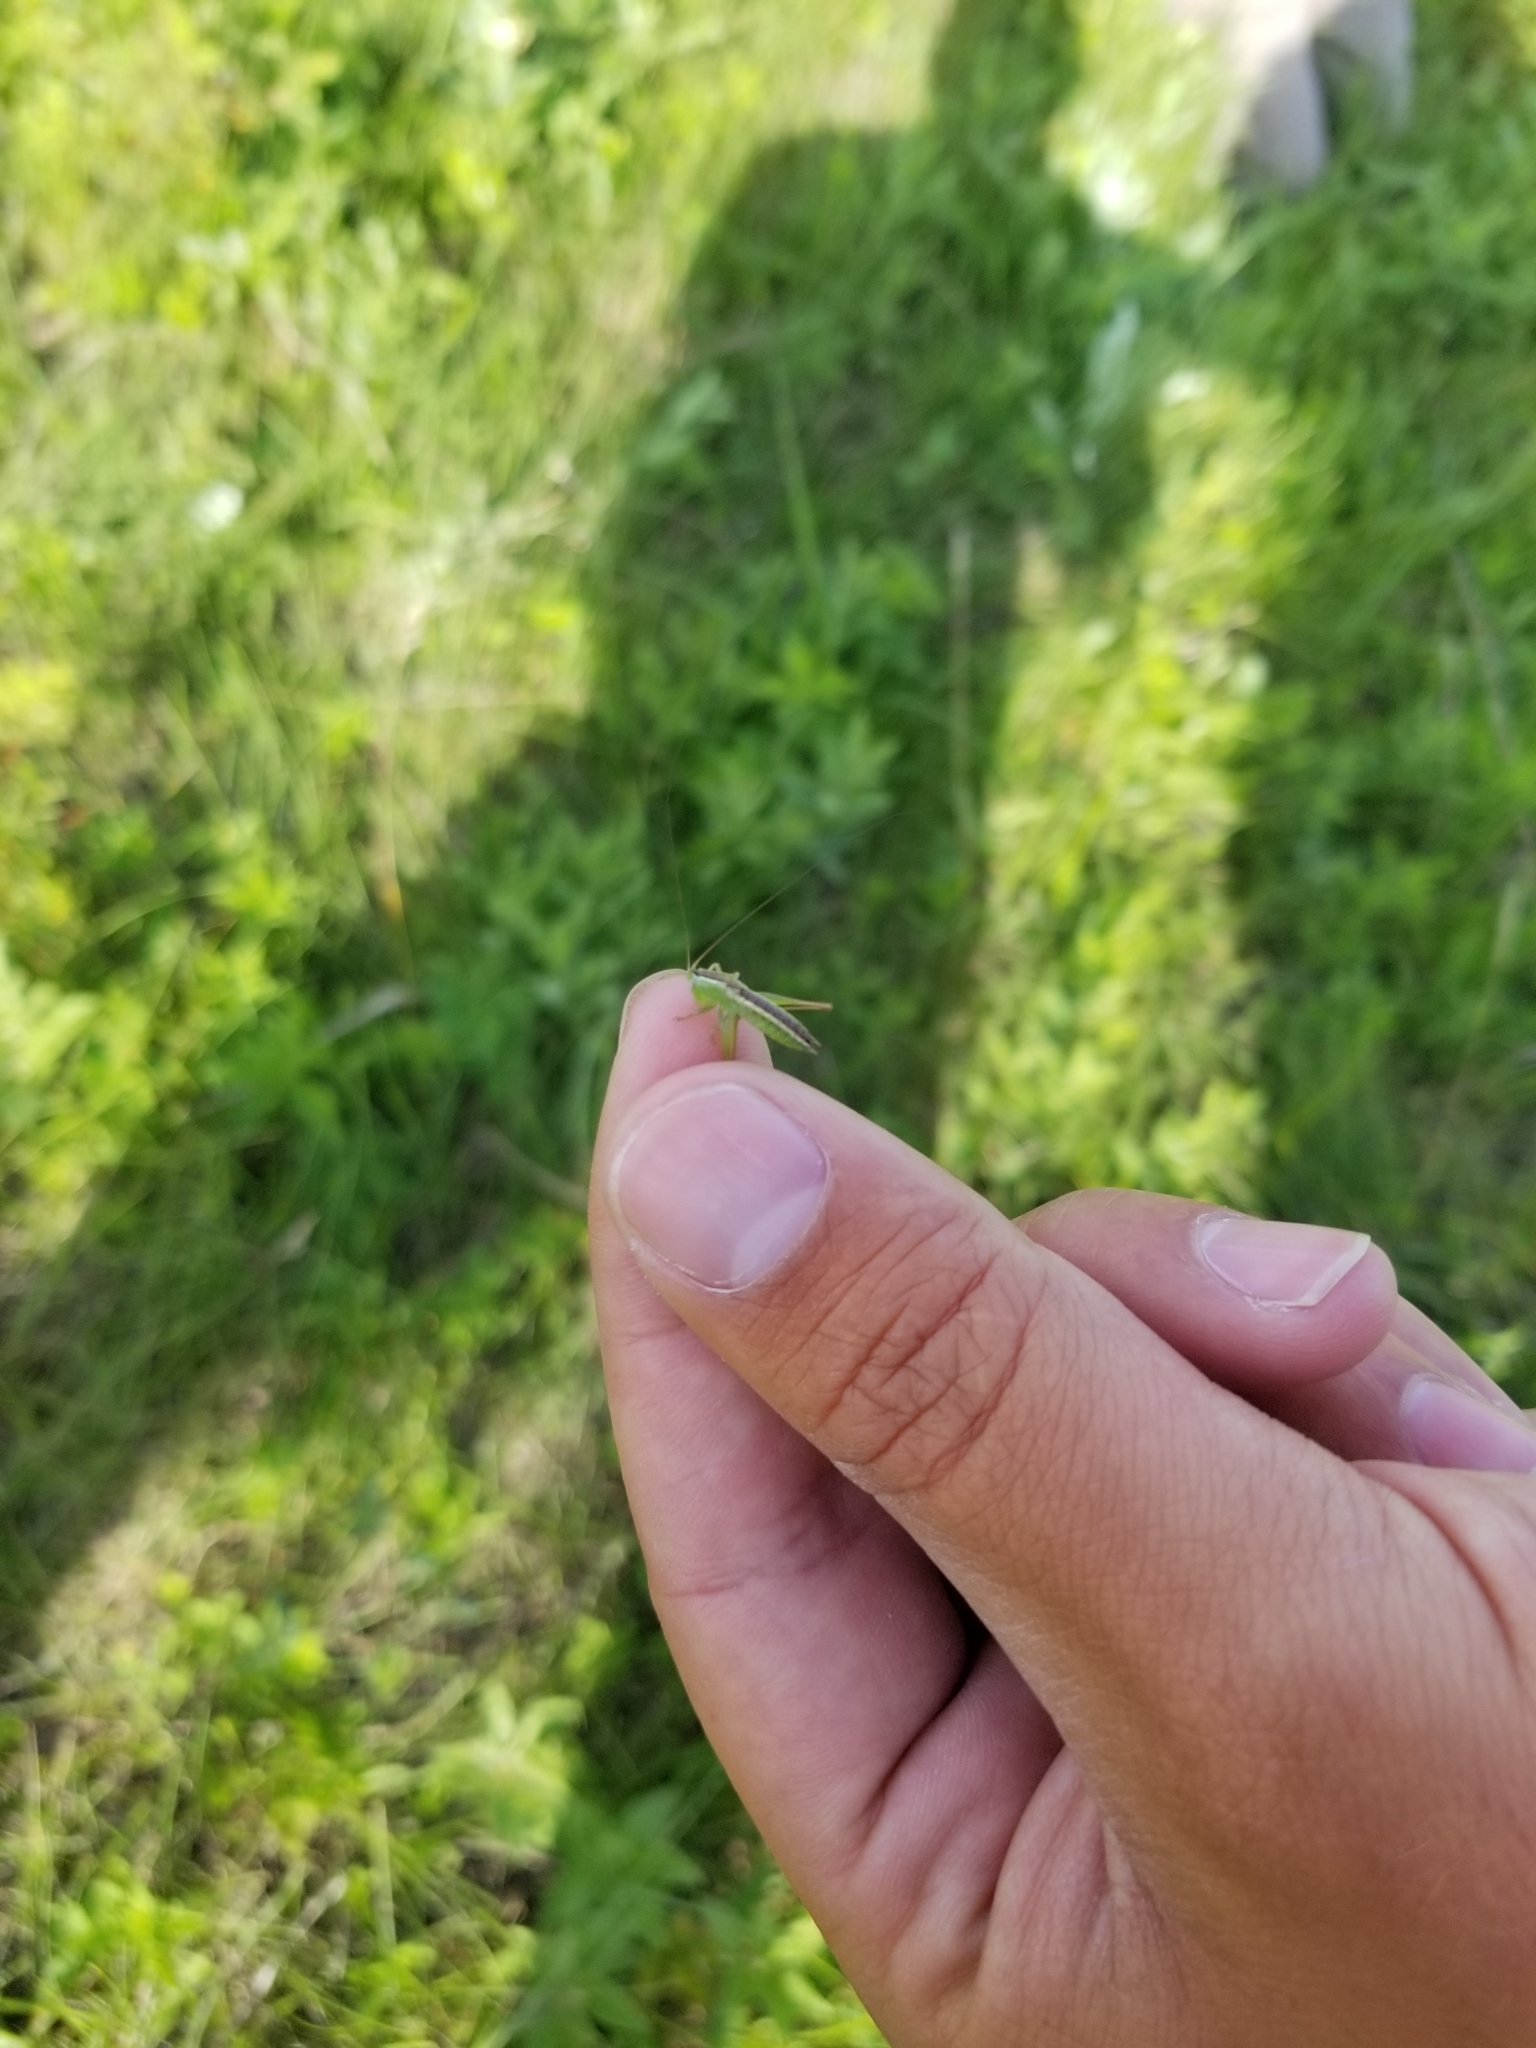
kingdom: Animalia
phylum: Arthropoda
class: Insecta
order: Orthoptera
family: Tettigoniidae
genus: Conocephalus
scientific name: Conocephalus saltans
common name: Prairie meadow katydid
